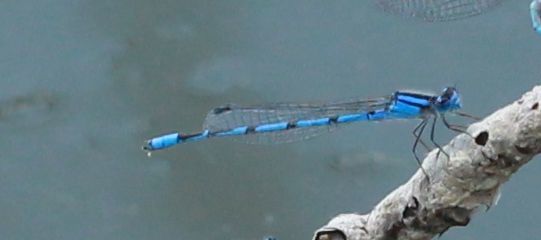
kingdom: Animalia
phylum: Arthropoda
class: Insecta
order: Odonata
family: Coenagrionidae
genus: Enallagma
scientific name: Enallagma civile
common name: Damselfly
